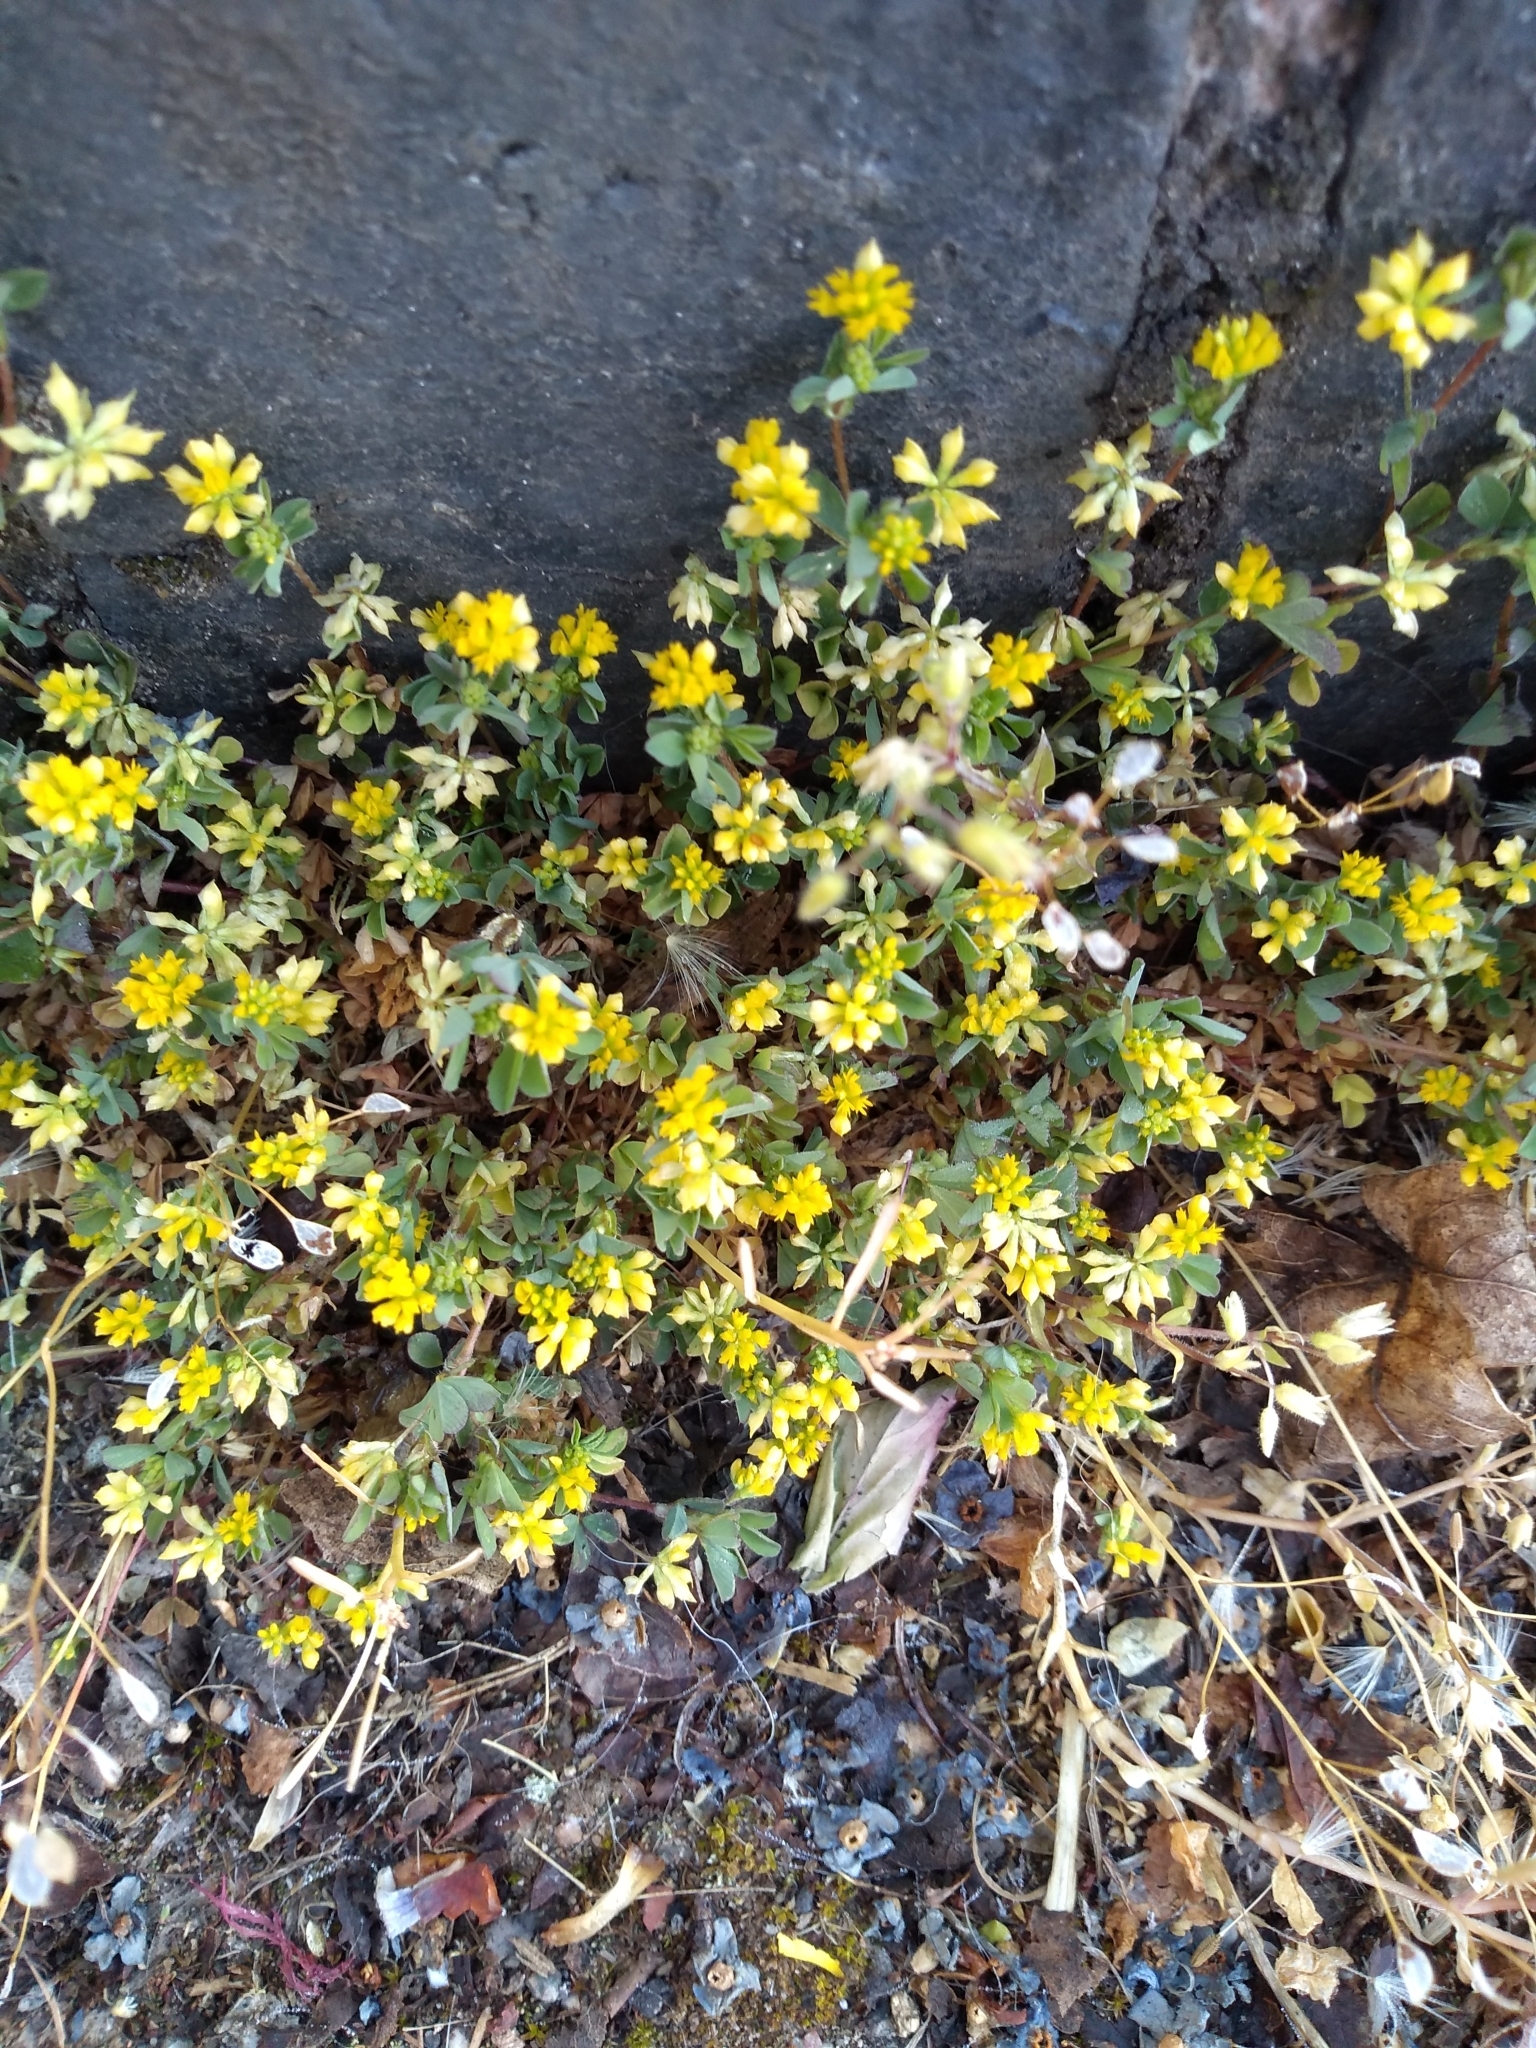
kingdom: Plantae
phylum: Tracheophyta
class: Magnoliopsida
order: Fabales
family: Fabaceae
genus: Trifolium
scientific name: Trifolium dubium
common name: Suckling clover
